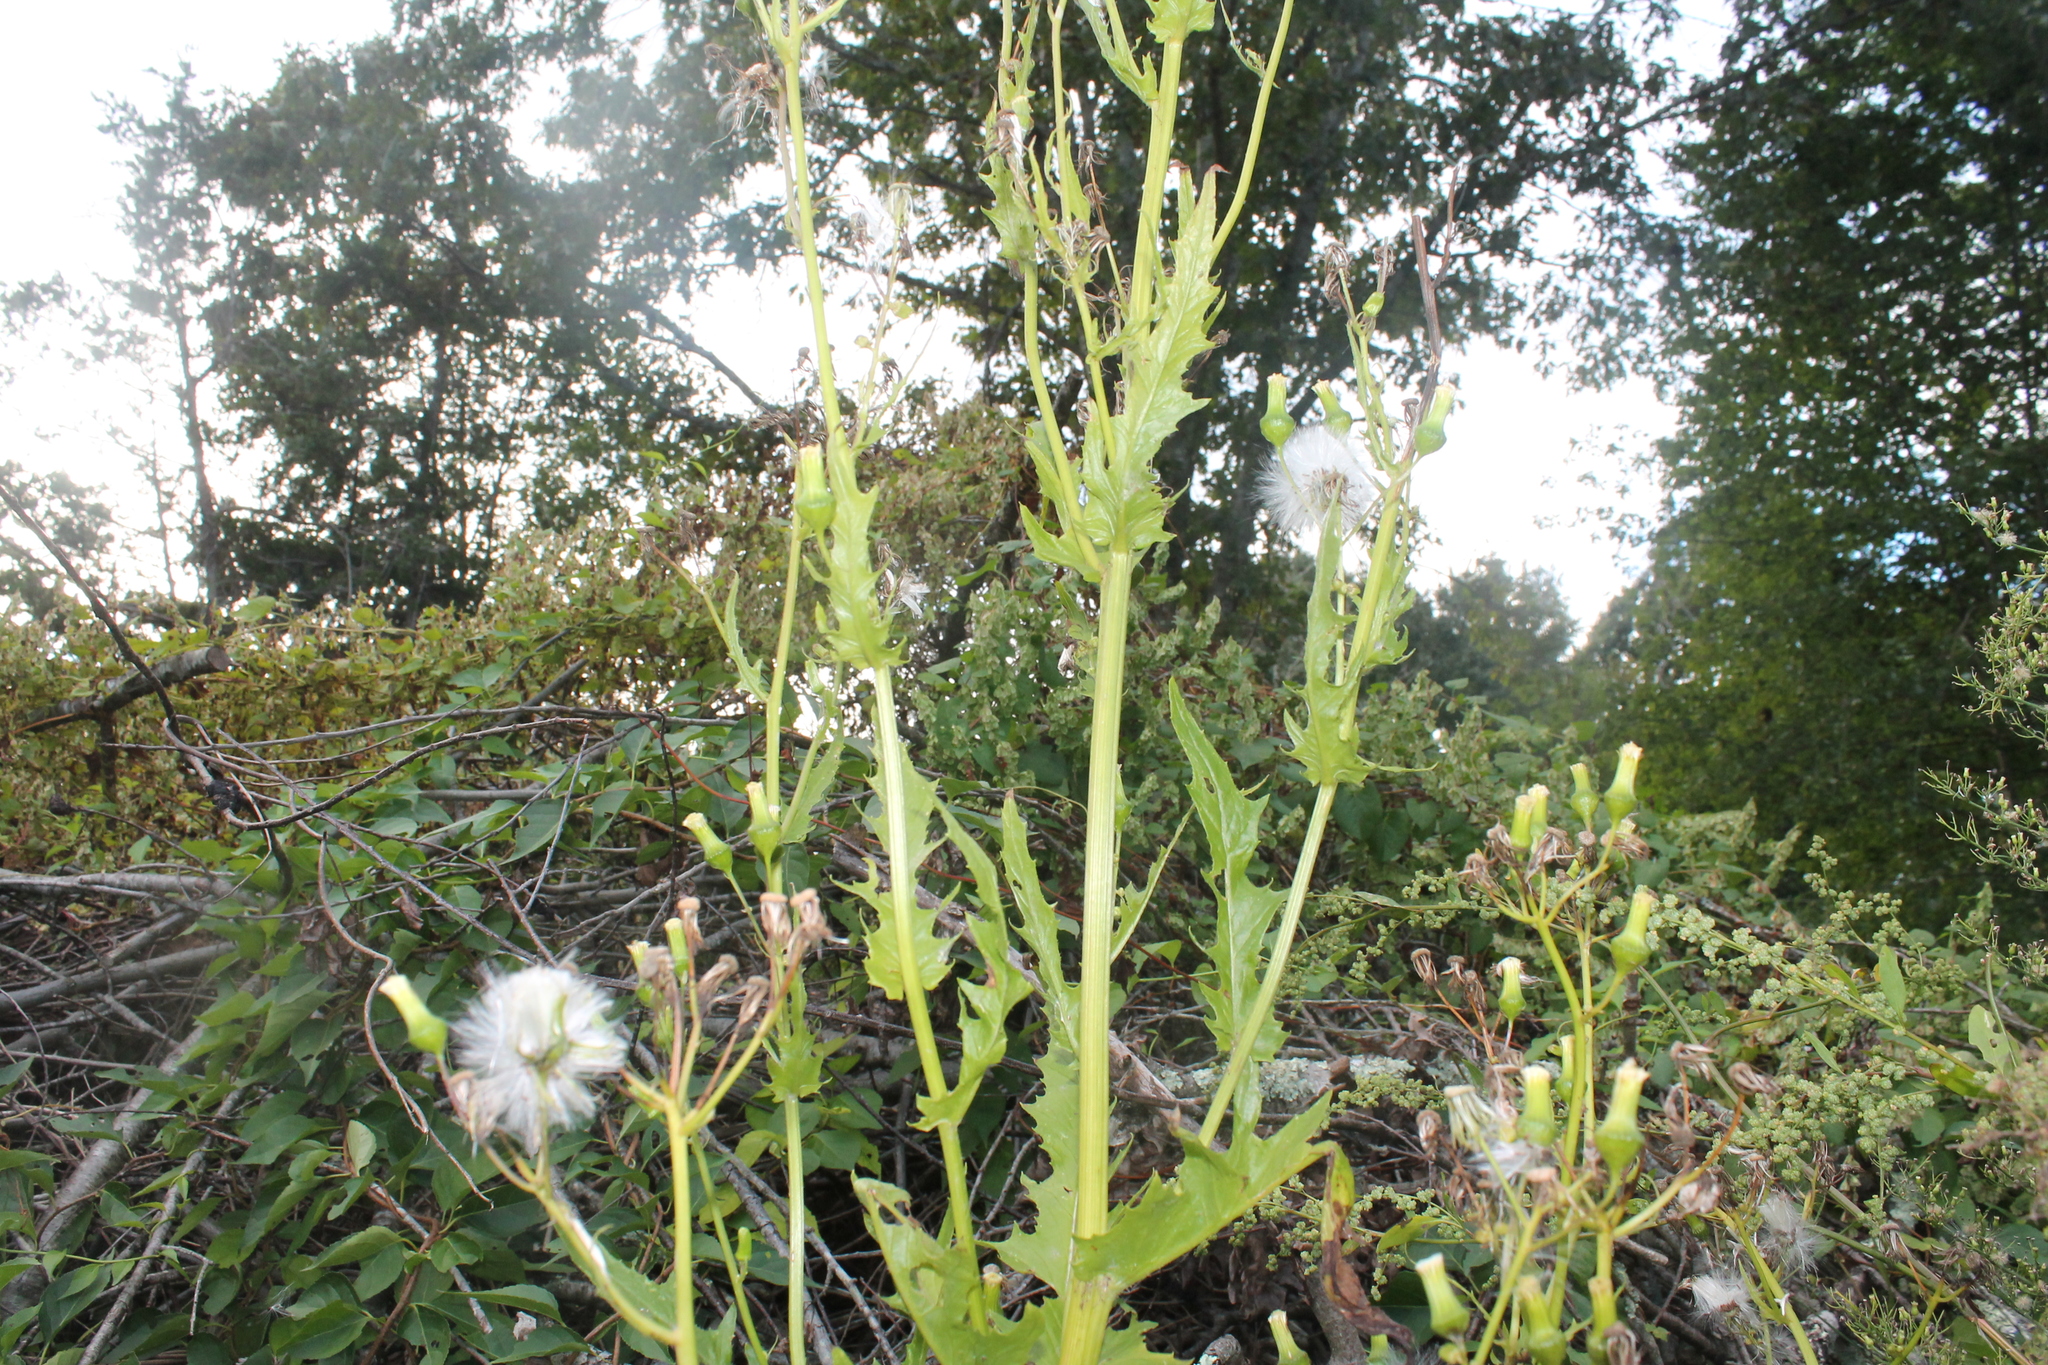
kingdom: Plantae
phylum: Tracheophyta
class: Magnoliopsida
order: Asterales
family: Asteraceae
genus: Erechtites
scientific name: Erechtites hieraciifolius
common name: American burnweed
